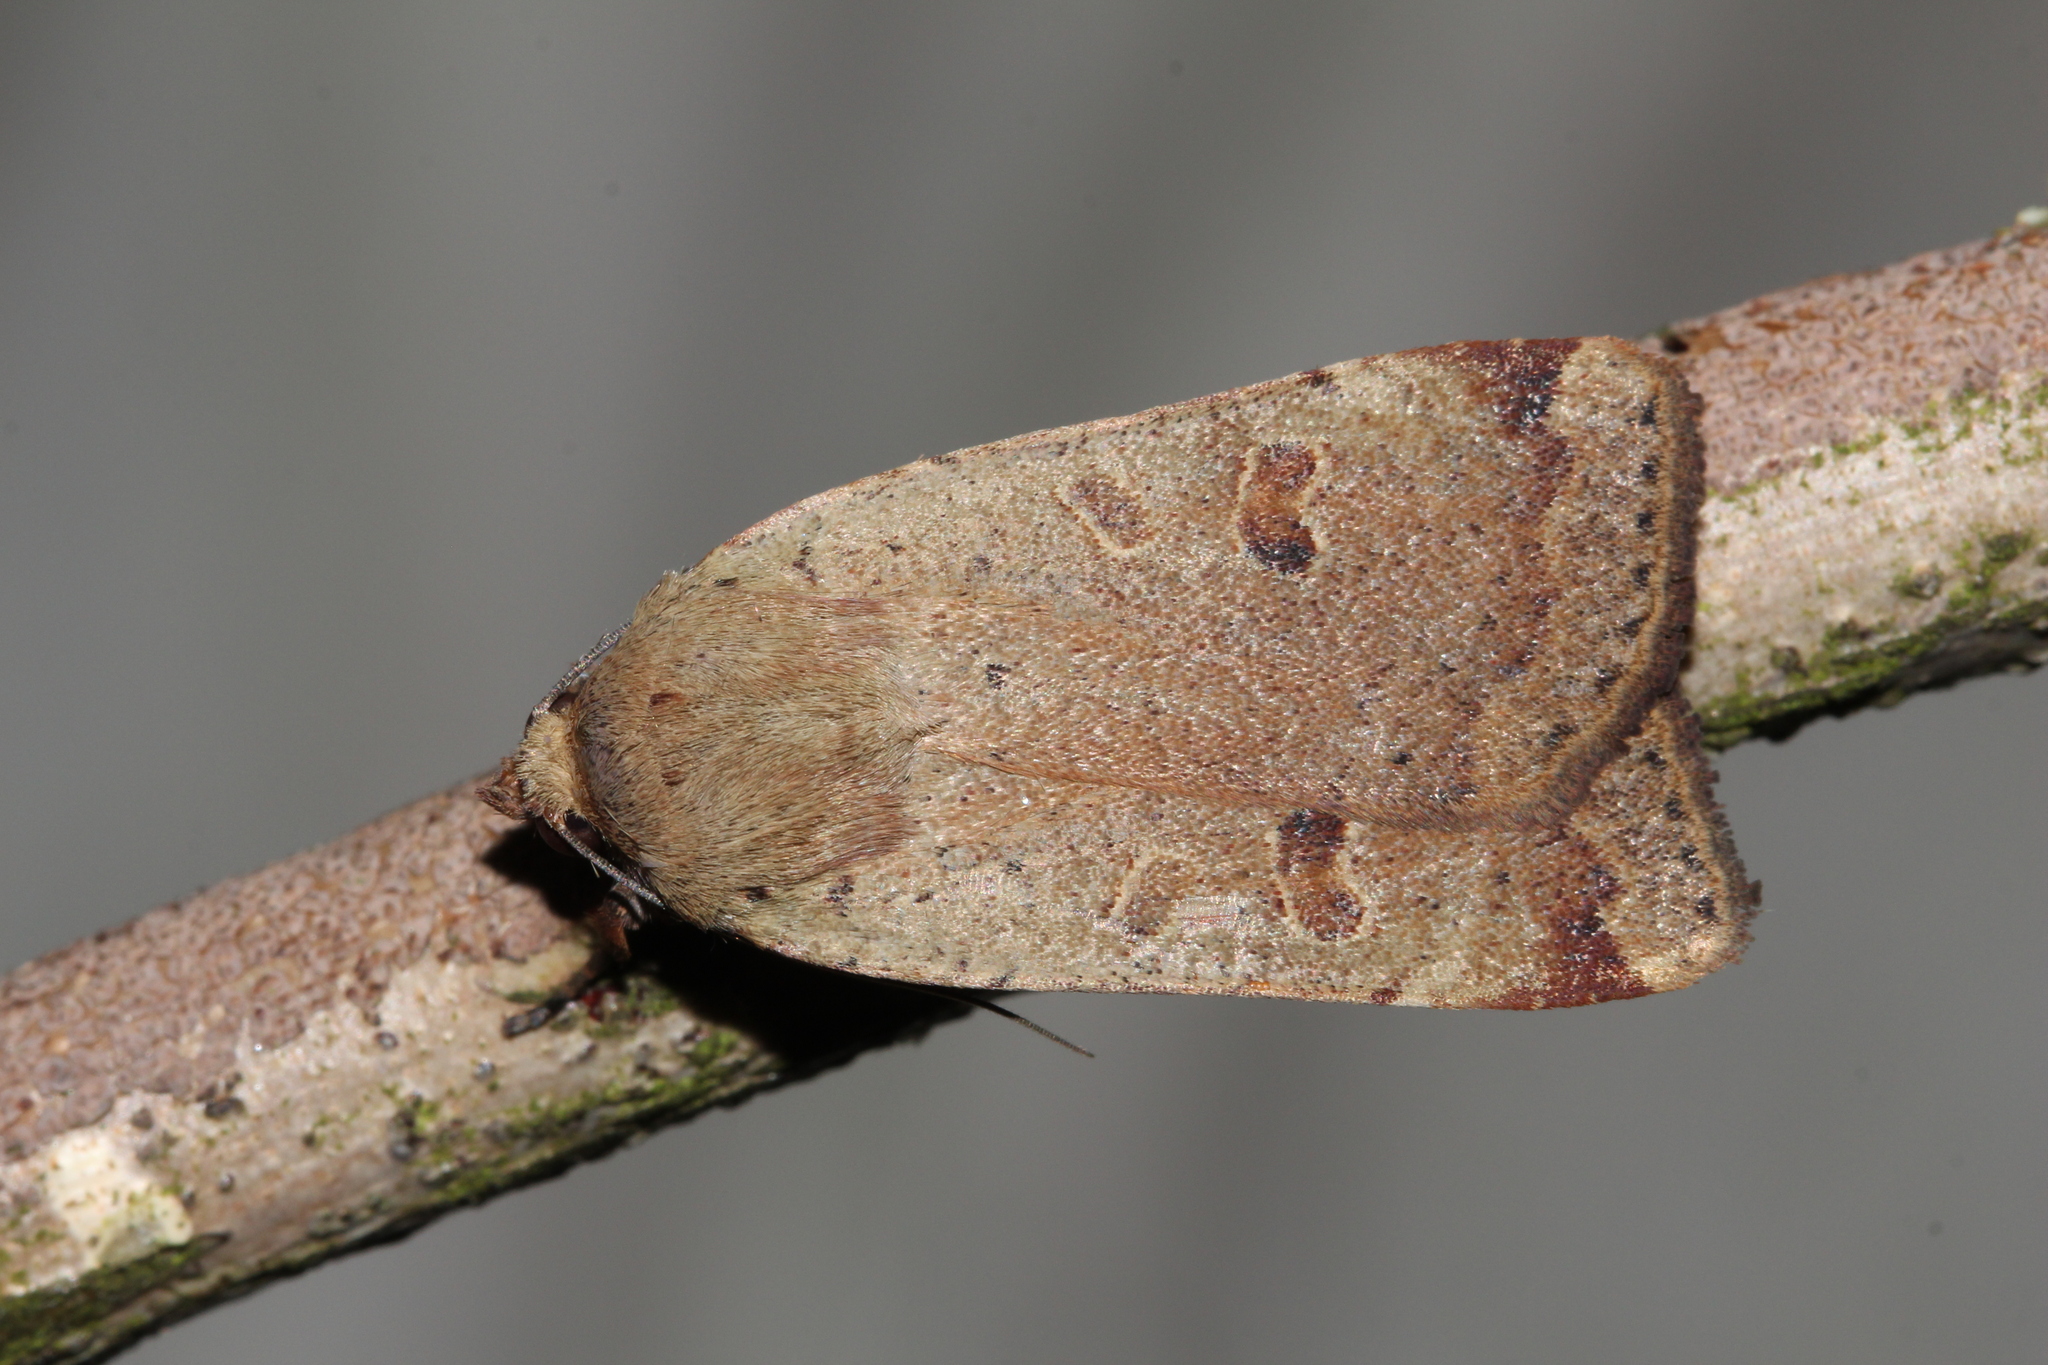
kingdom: Animalia
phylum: Arthropoda
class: Insecta
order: Lepidoptera
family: Noctuidae
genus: Noctua
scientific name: Noctua comes
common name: Lesser yellow underwing
